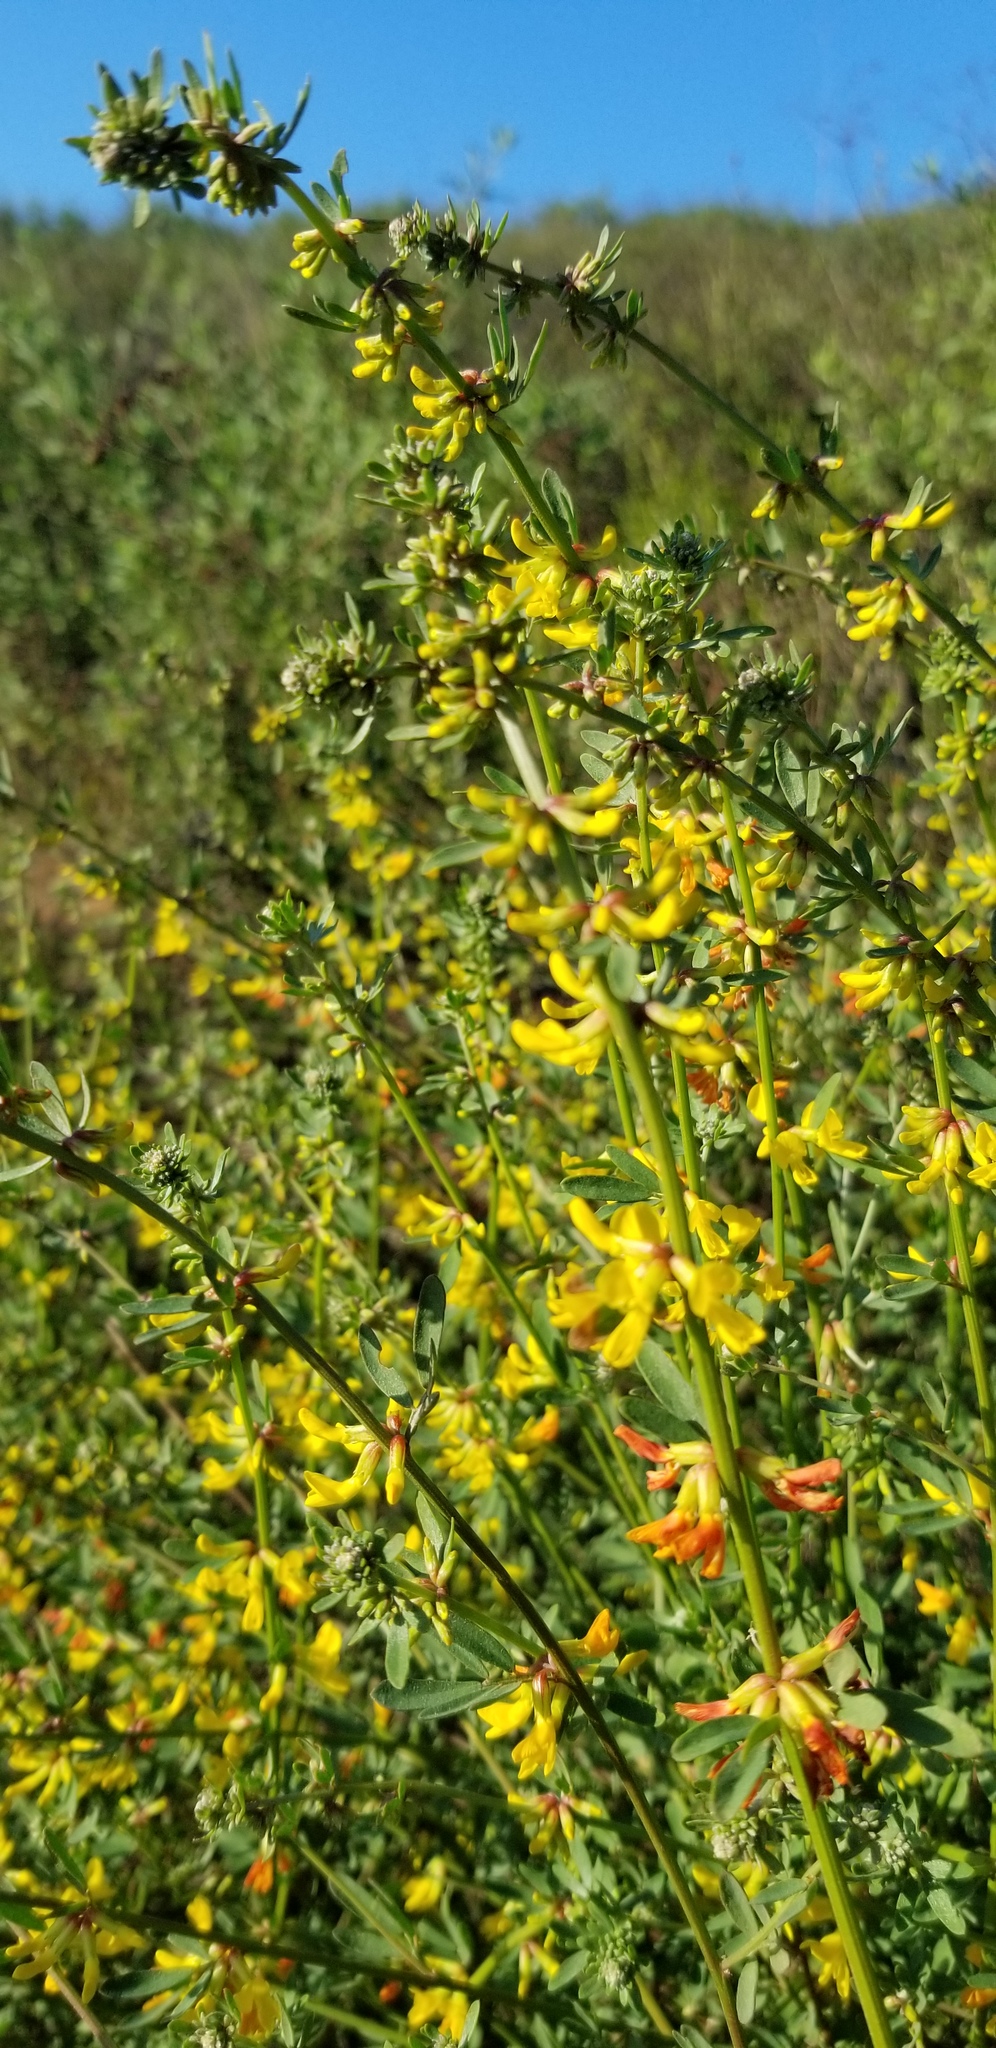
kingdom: Plantae
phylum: Tracheophyta
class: Magnoliopsida
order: Fabales
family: Fabaceae
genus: Acmispon
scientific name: Acmispon glaber
